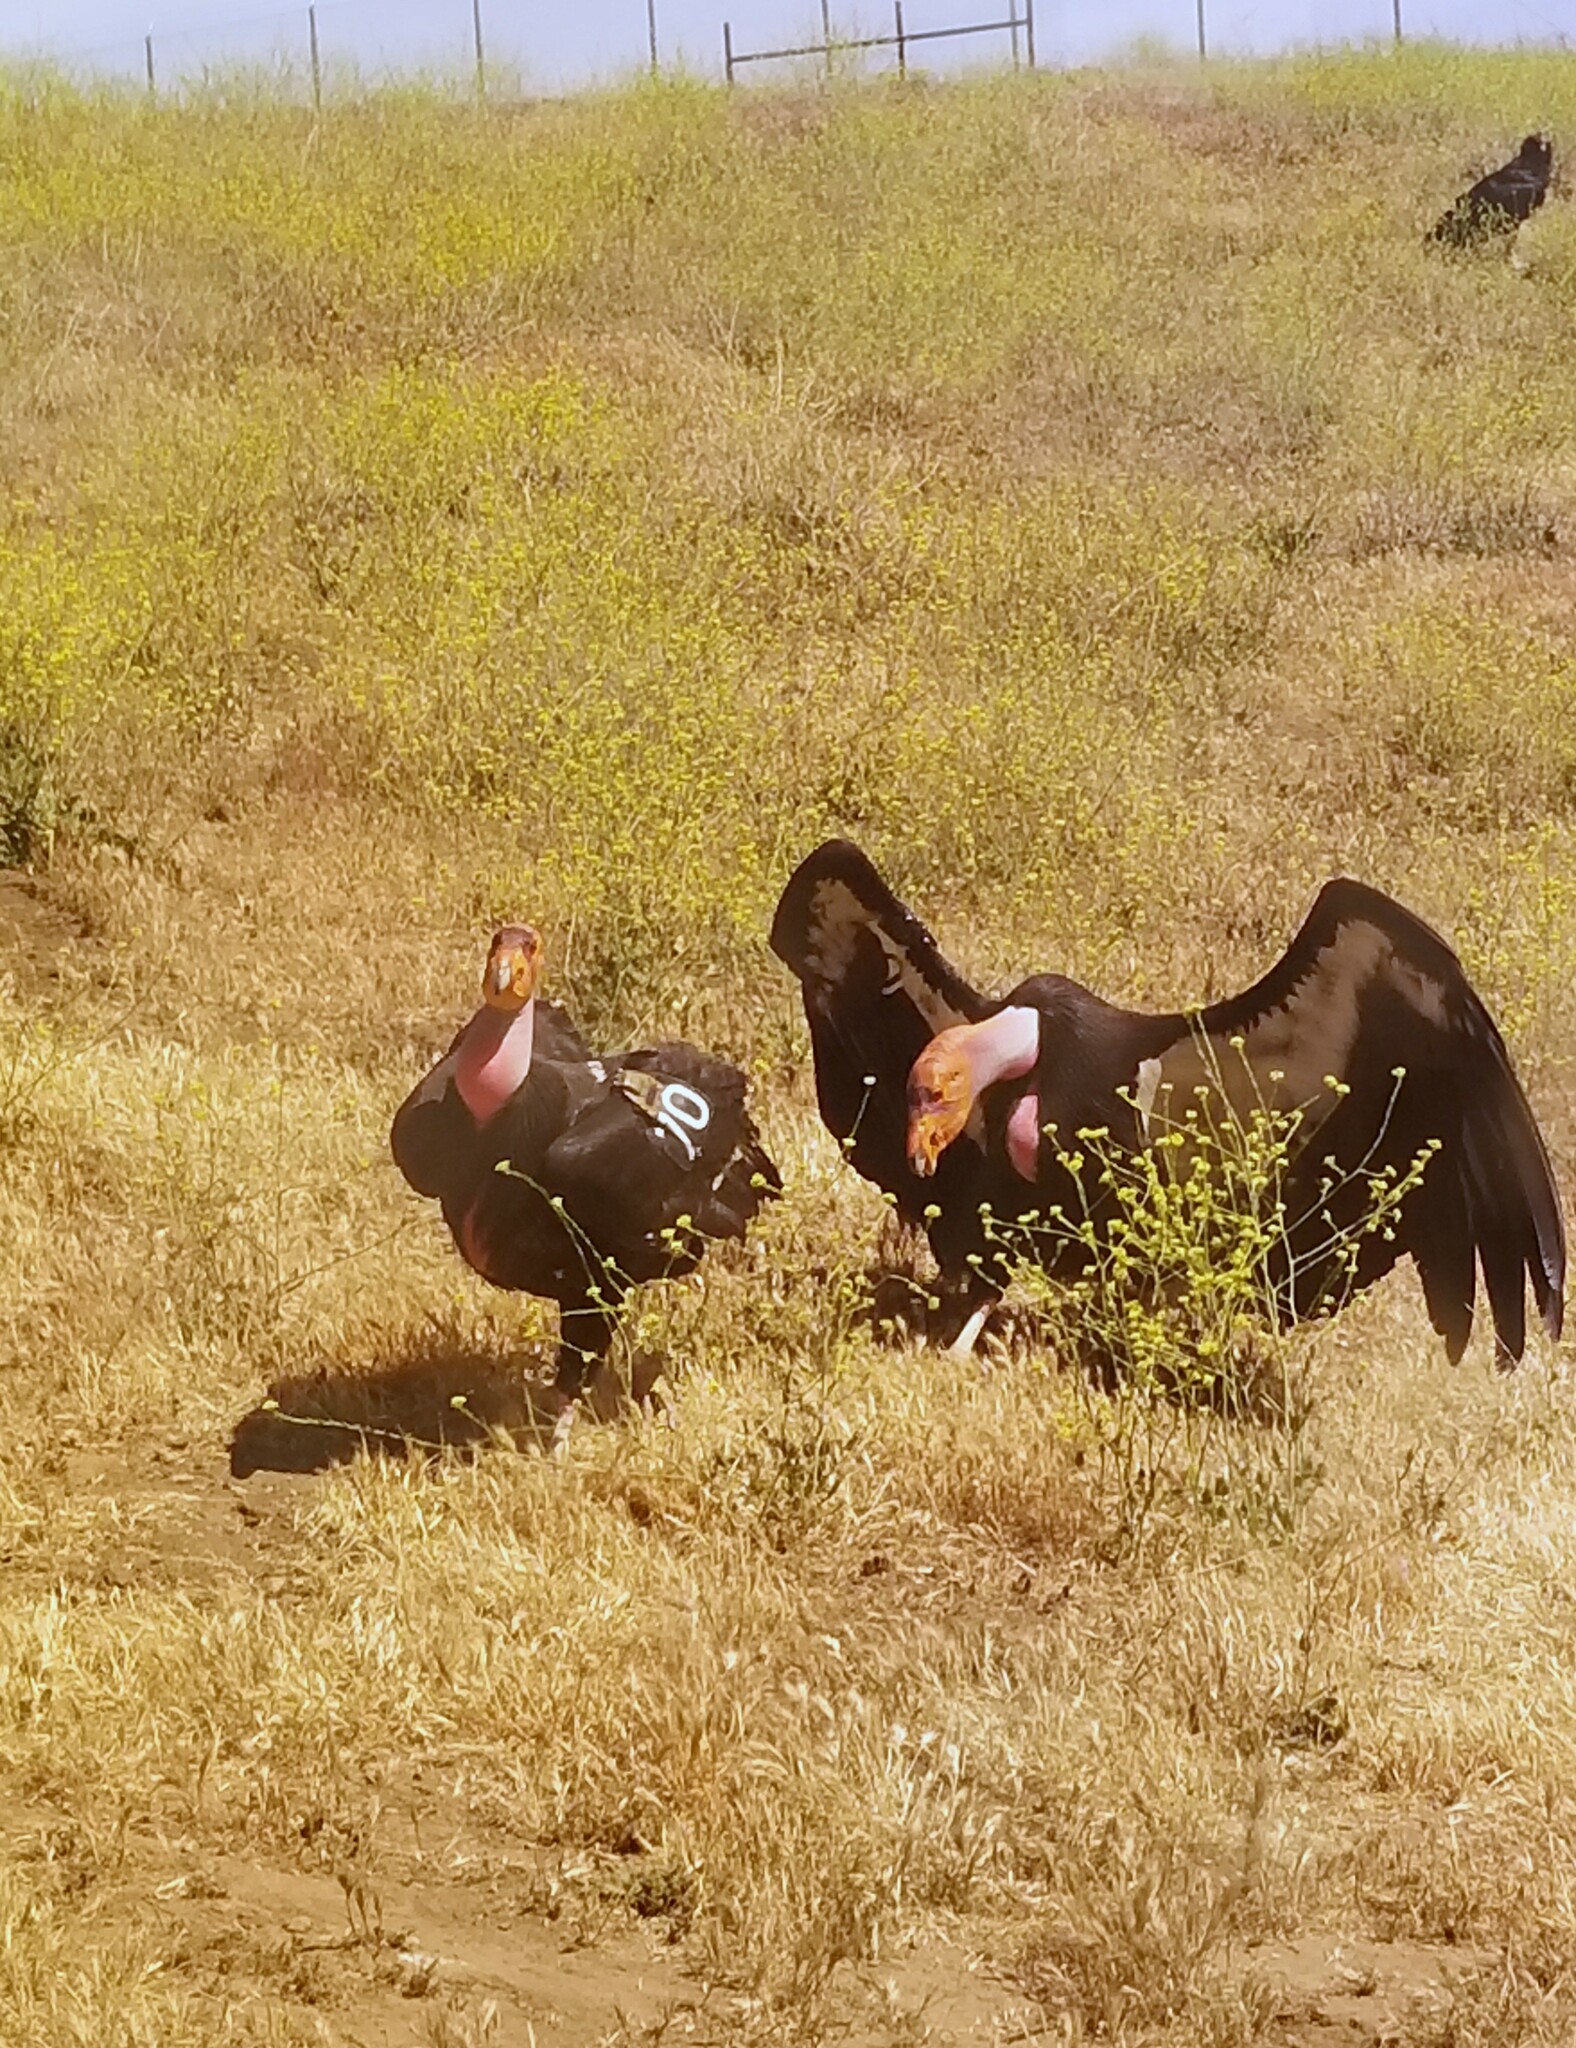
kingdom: Animalia
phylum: Chordata
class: Aves
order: Accipitriformes
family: Cathartidae
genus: Gymnogyps
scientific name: Gymnogyps californianus
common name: California condor
